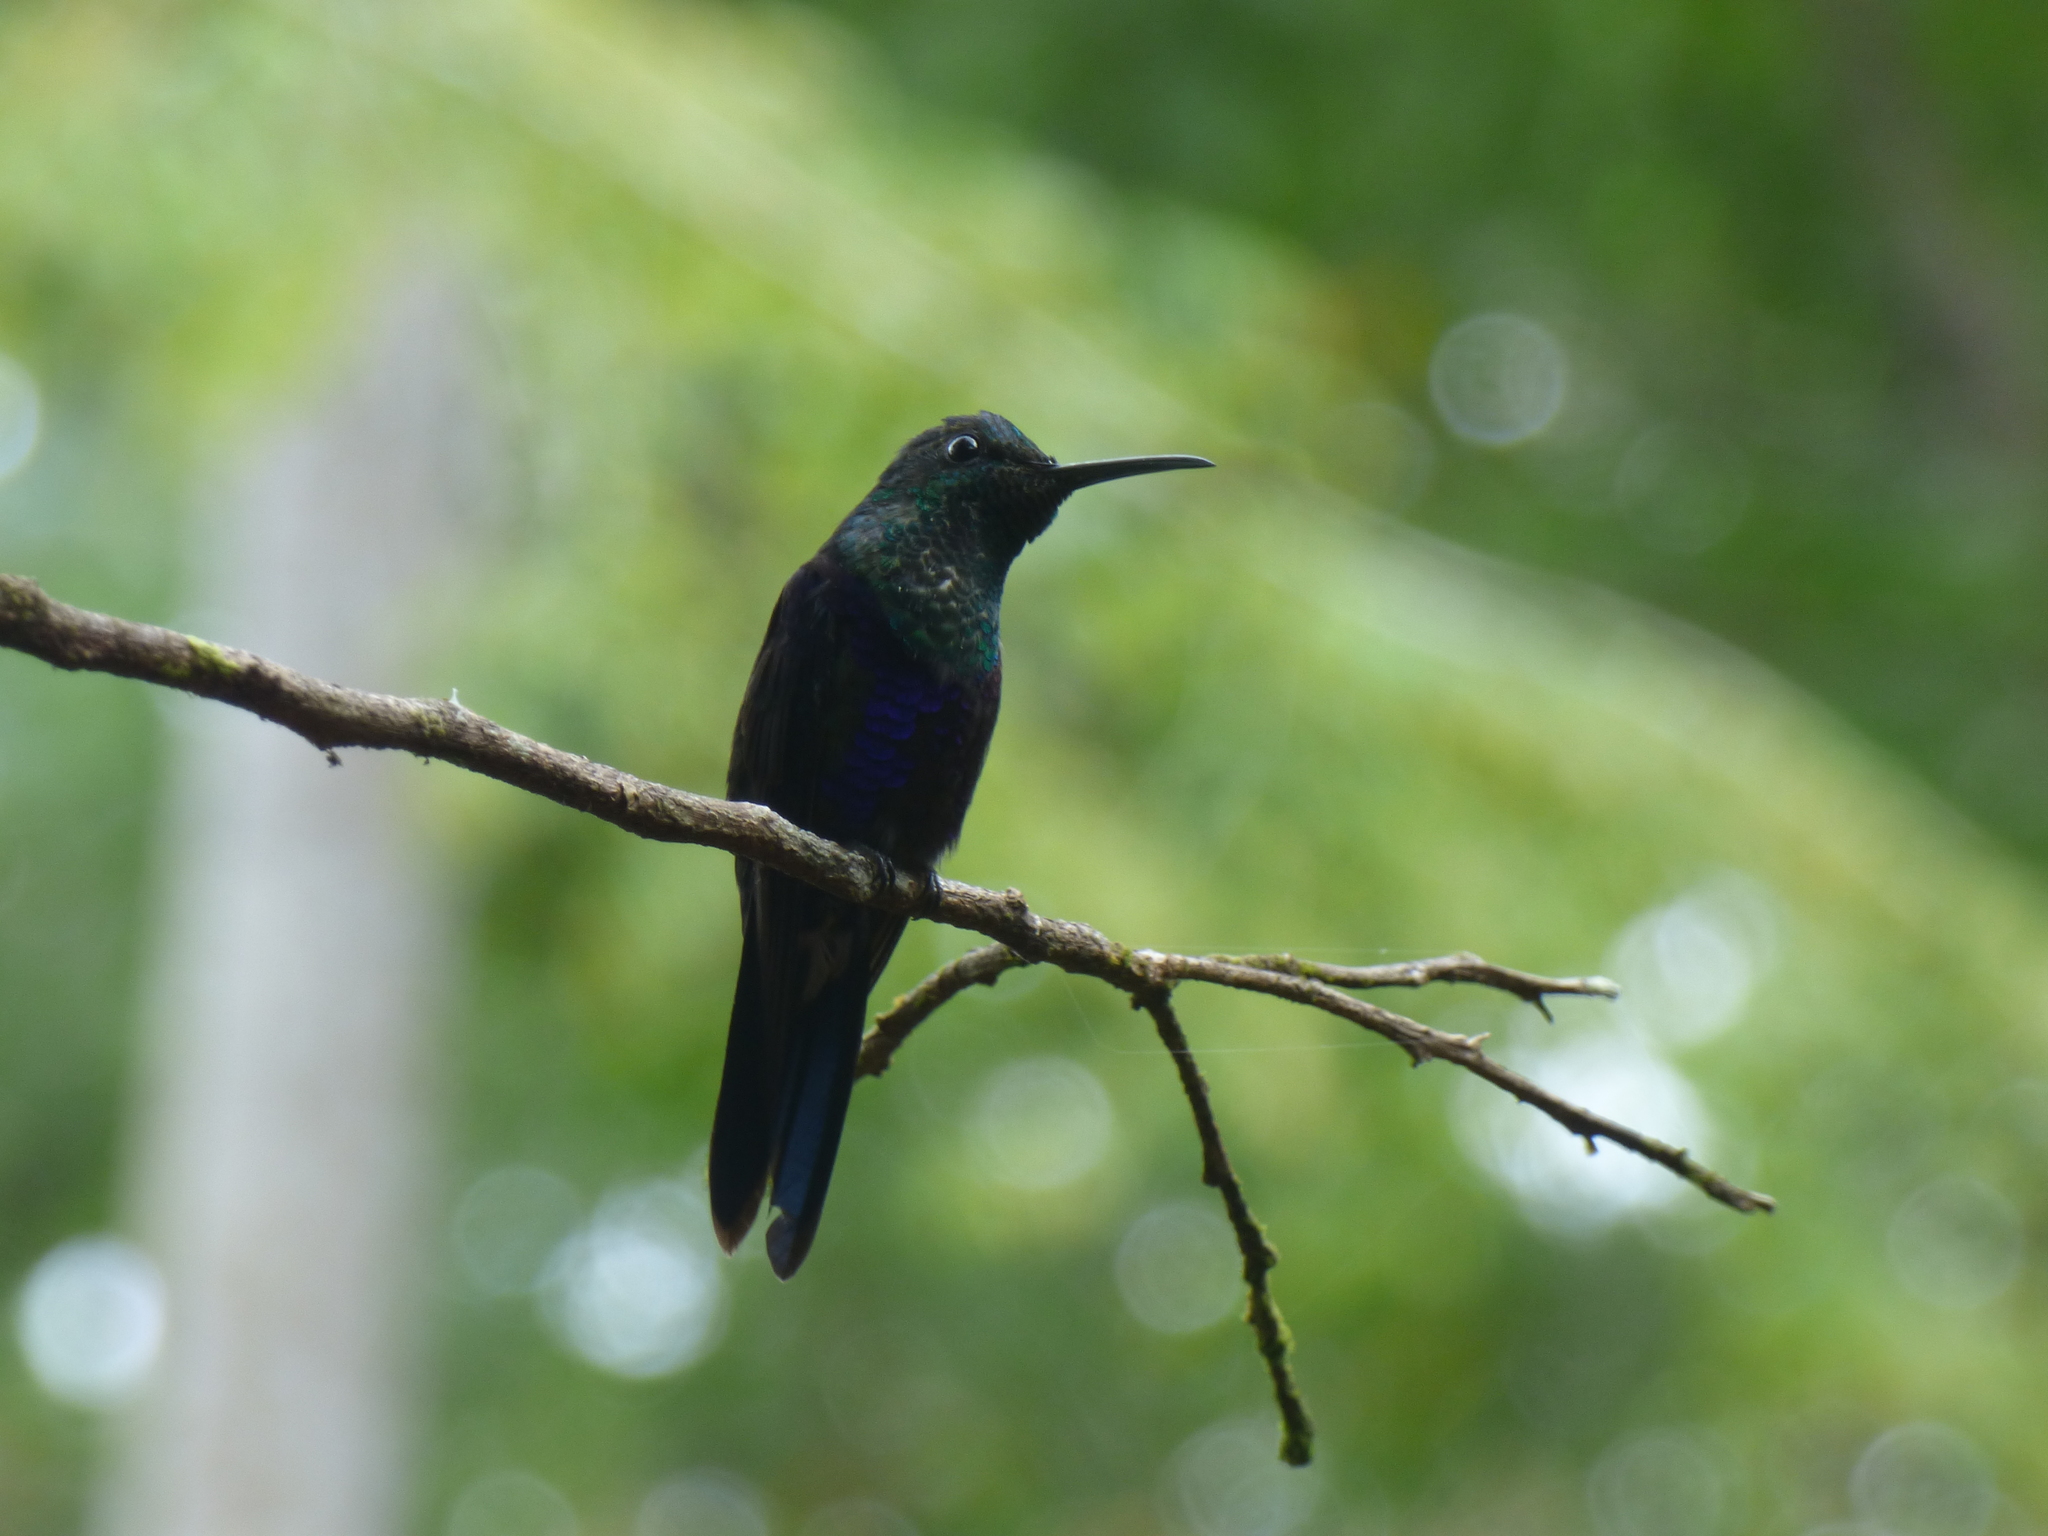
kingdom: Animalia
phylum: Chordata
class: Aves
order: Apodiformes
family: Trochilidae
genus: Thalurania
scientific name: Thalurania colombica
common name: Crowned woodnymph
